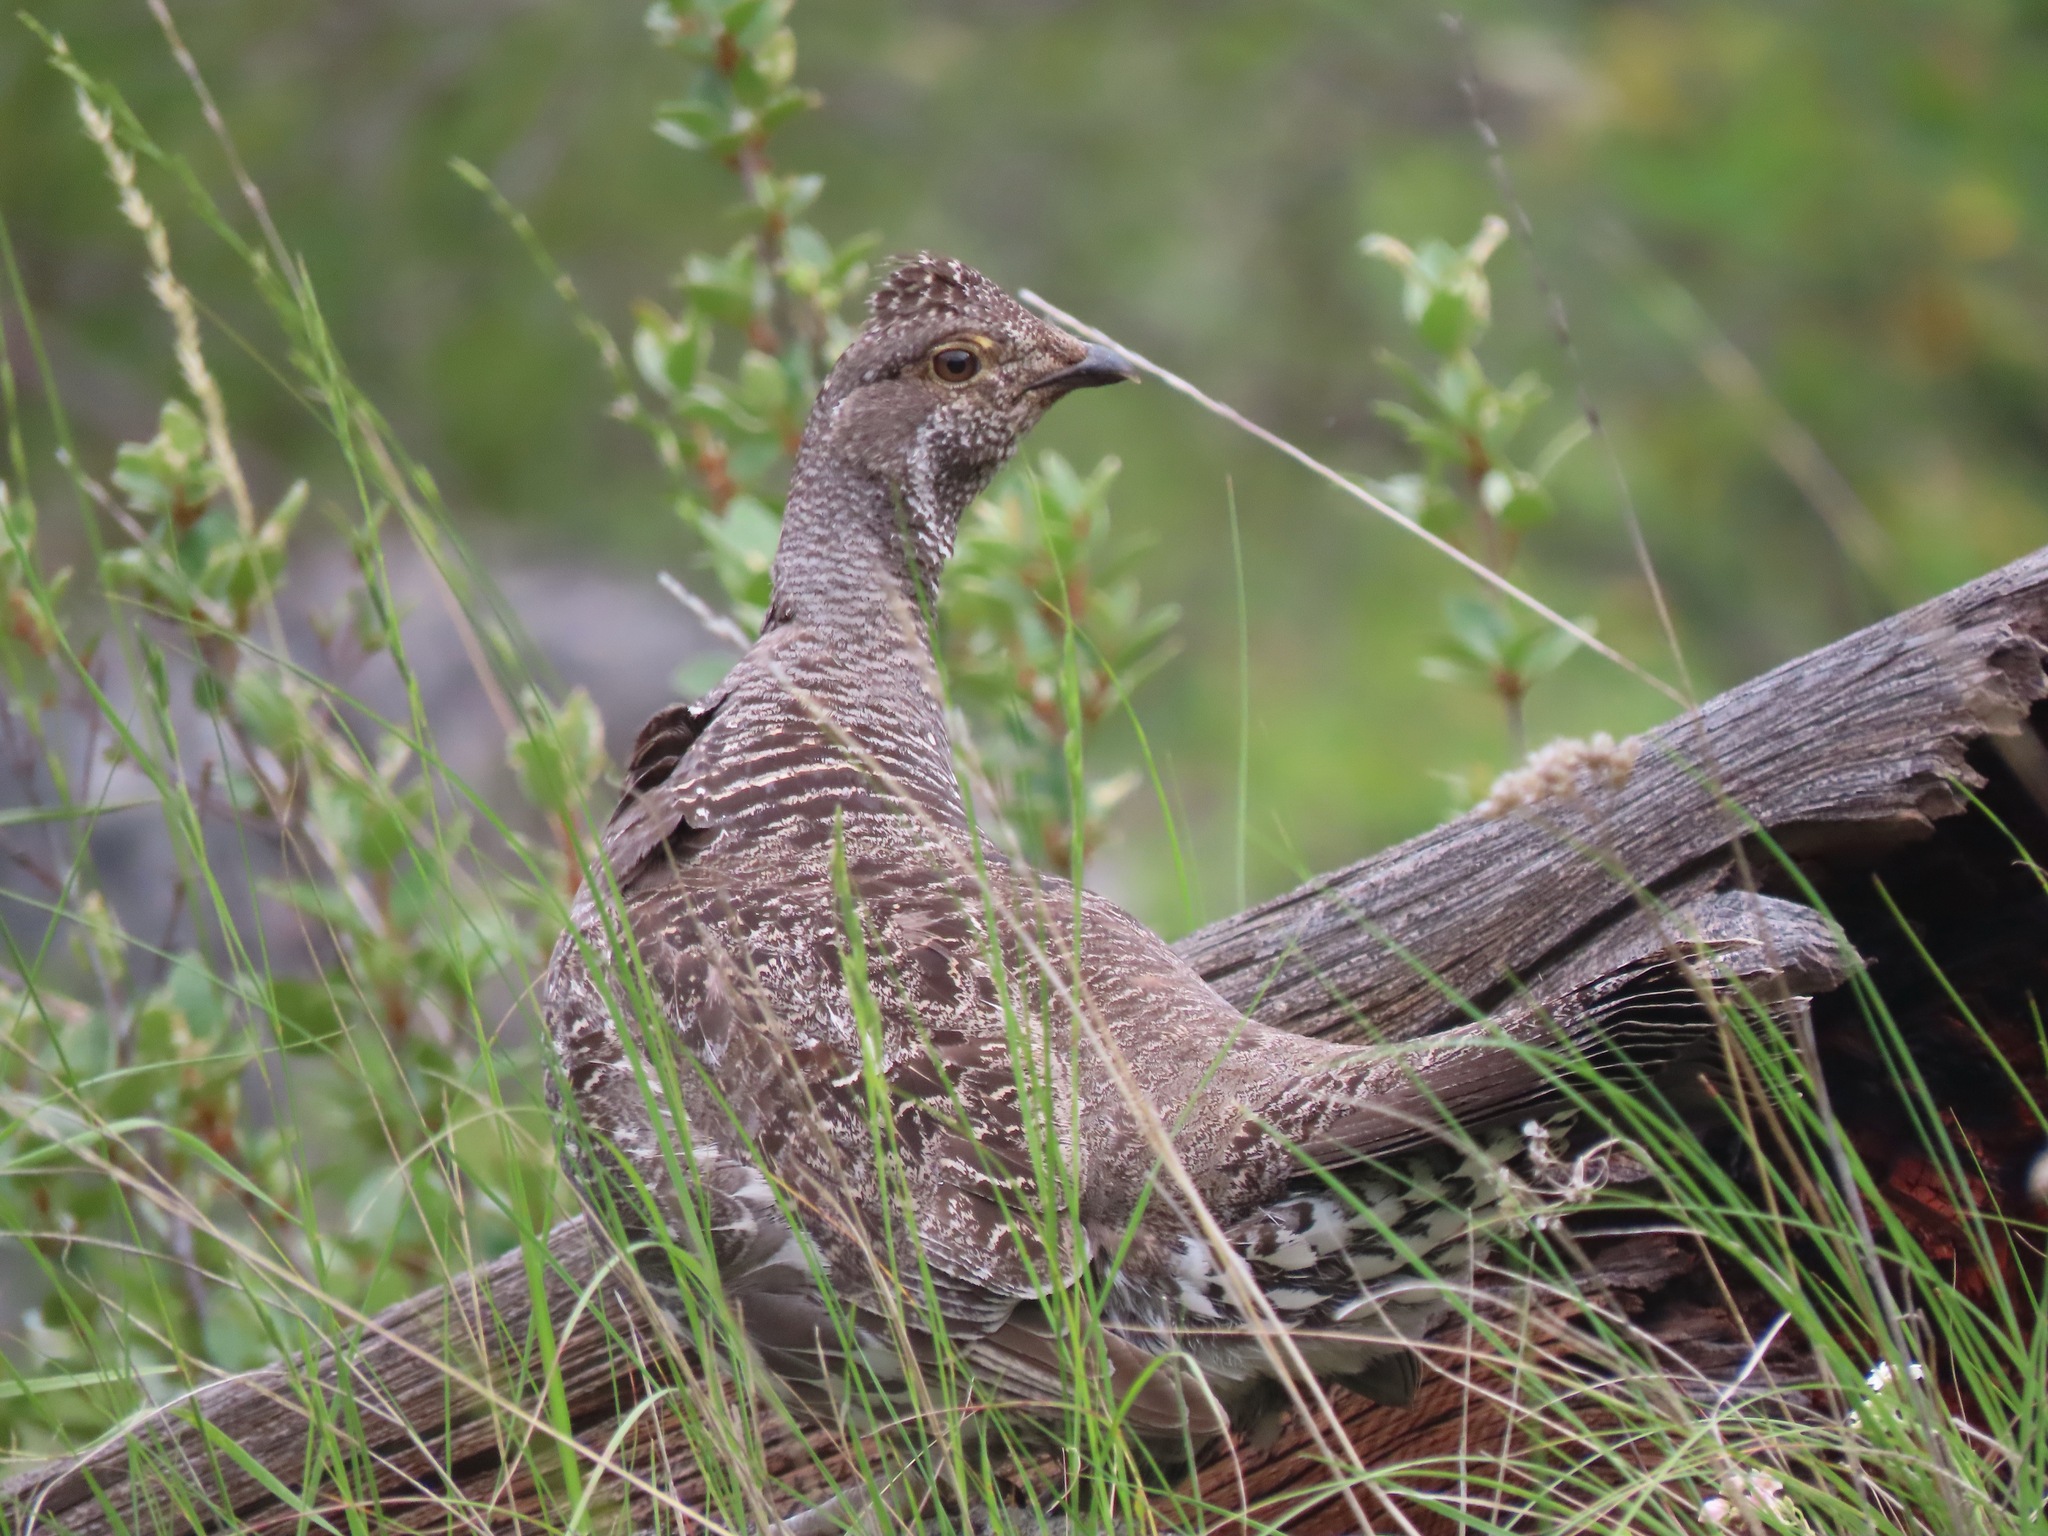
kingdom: Animalia
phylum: Chordata
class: Aves
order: Galliformes
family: Phasianidae
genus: Dendragapus
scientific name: Dendragapus obscurus
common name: Dusky grouse
